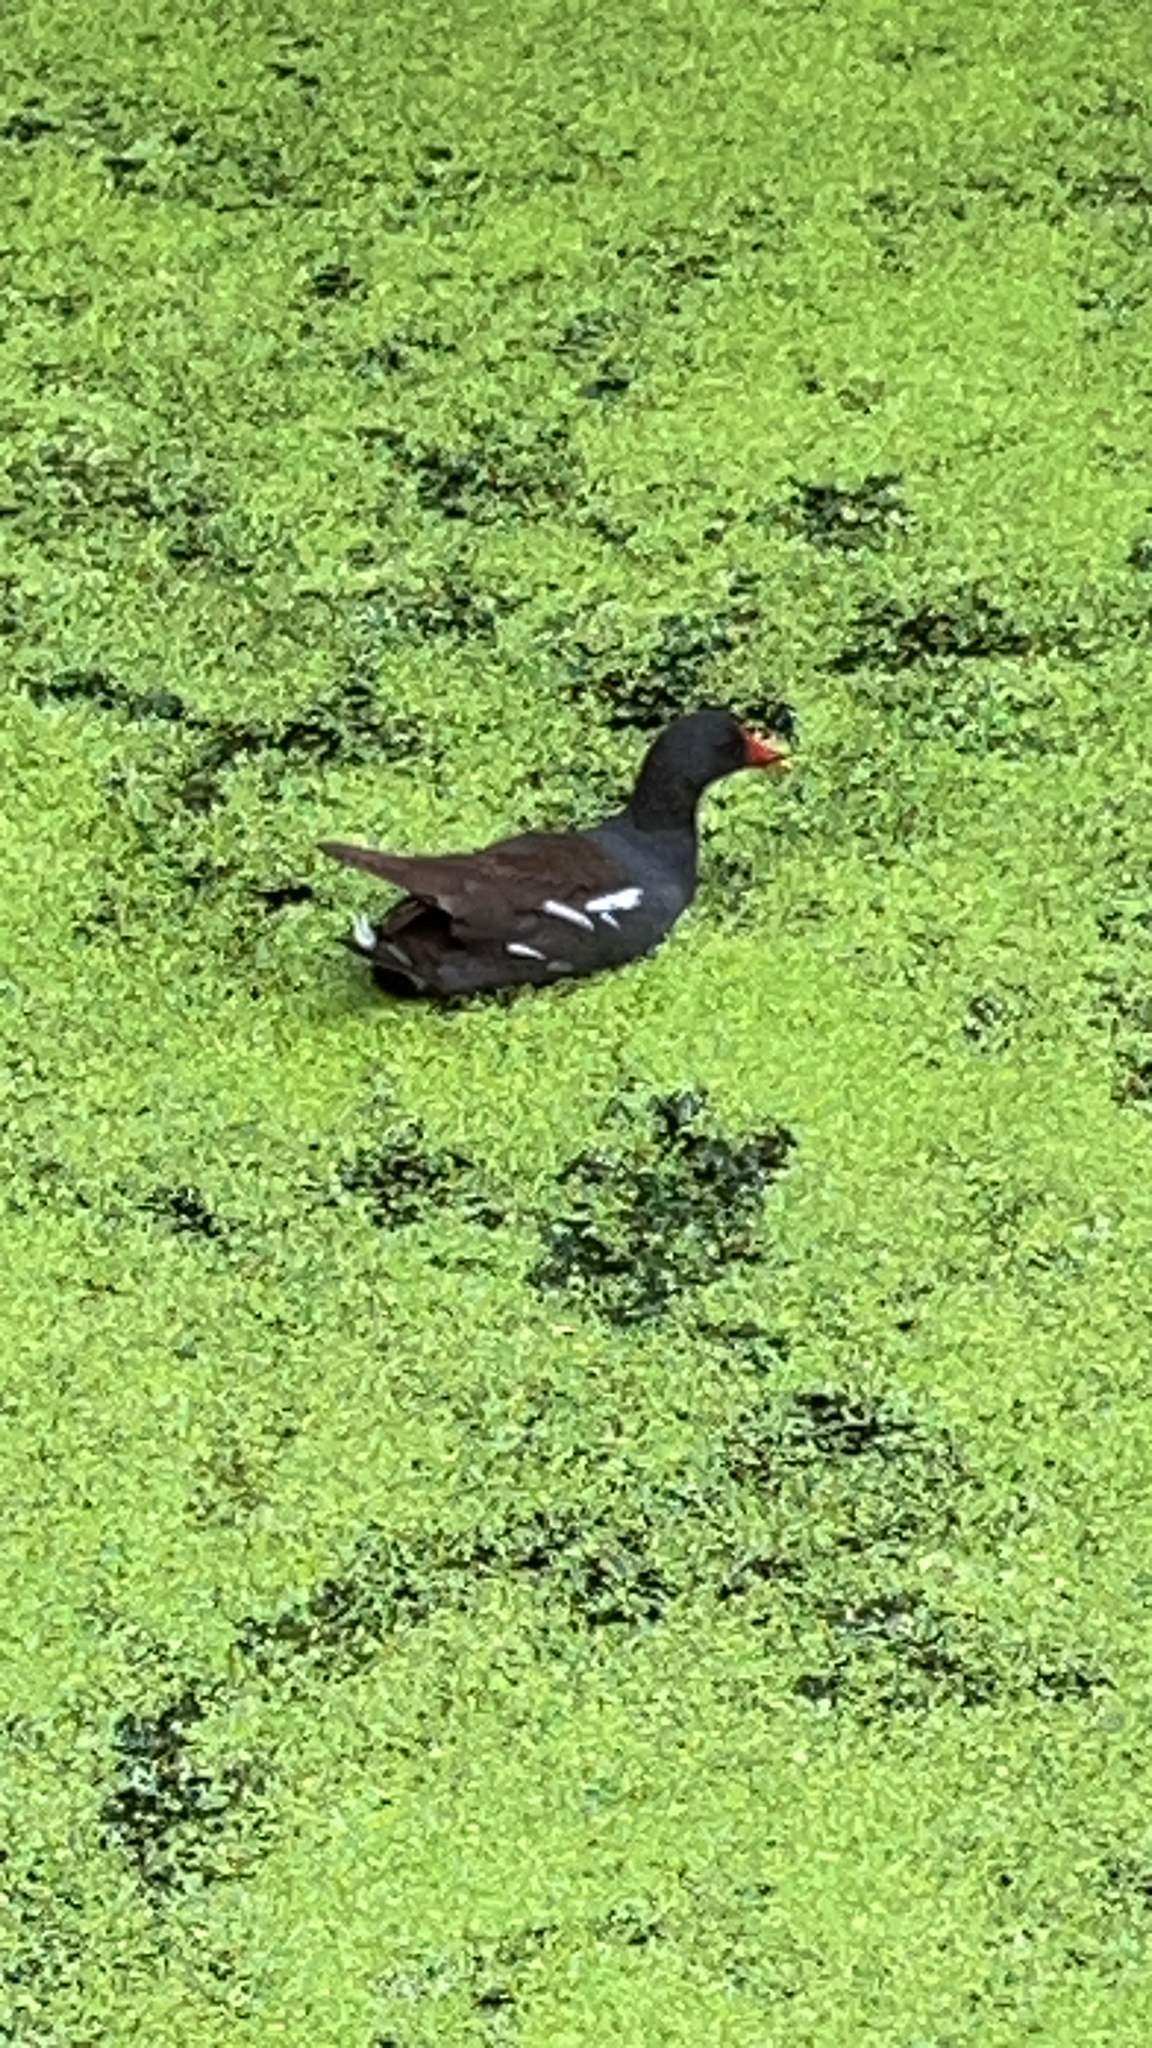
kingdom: Animalia
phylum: Chordata
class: Aves
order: Gruiformes
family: Rallidae
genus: Gallinula
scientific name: Gallinula chloropus
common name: Common moorhen
